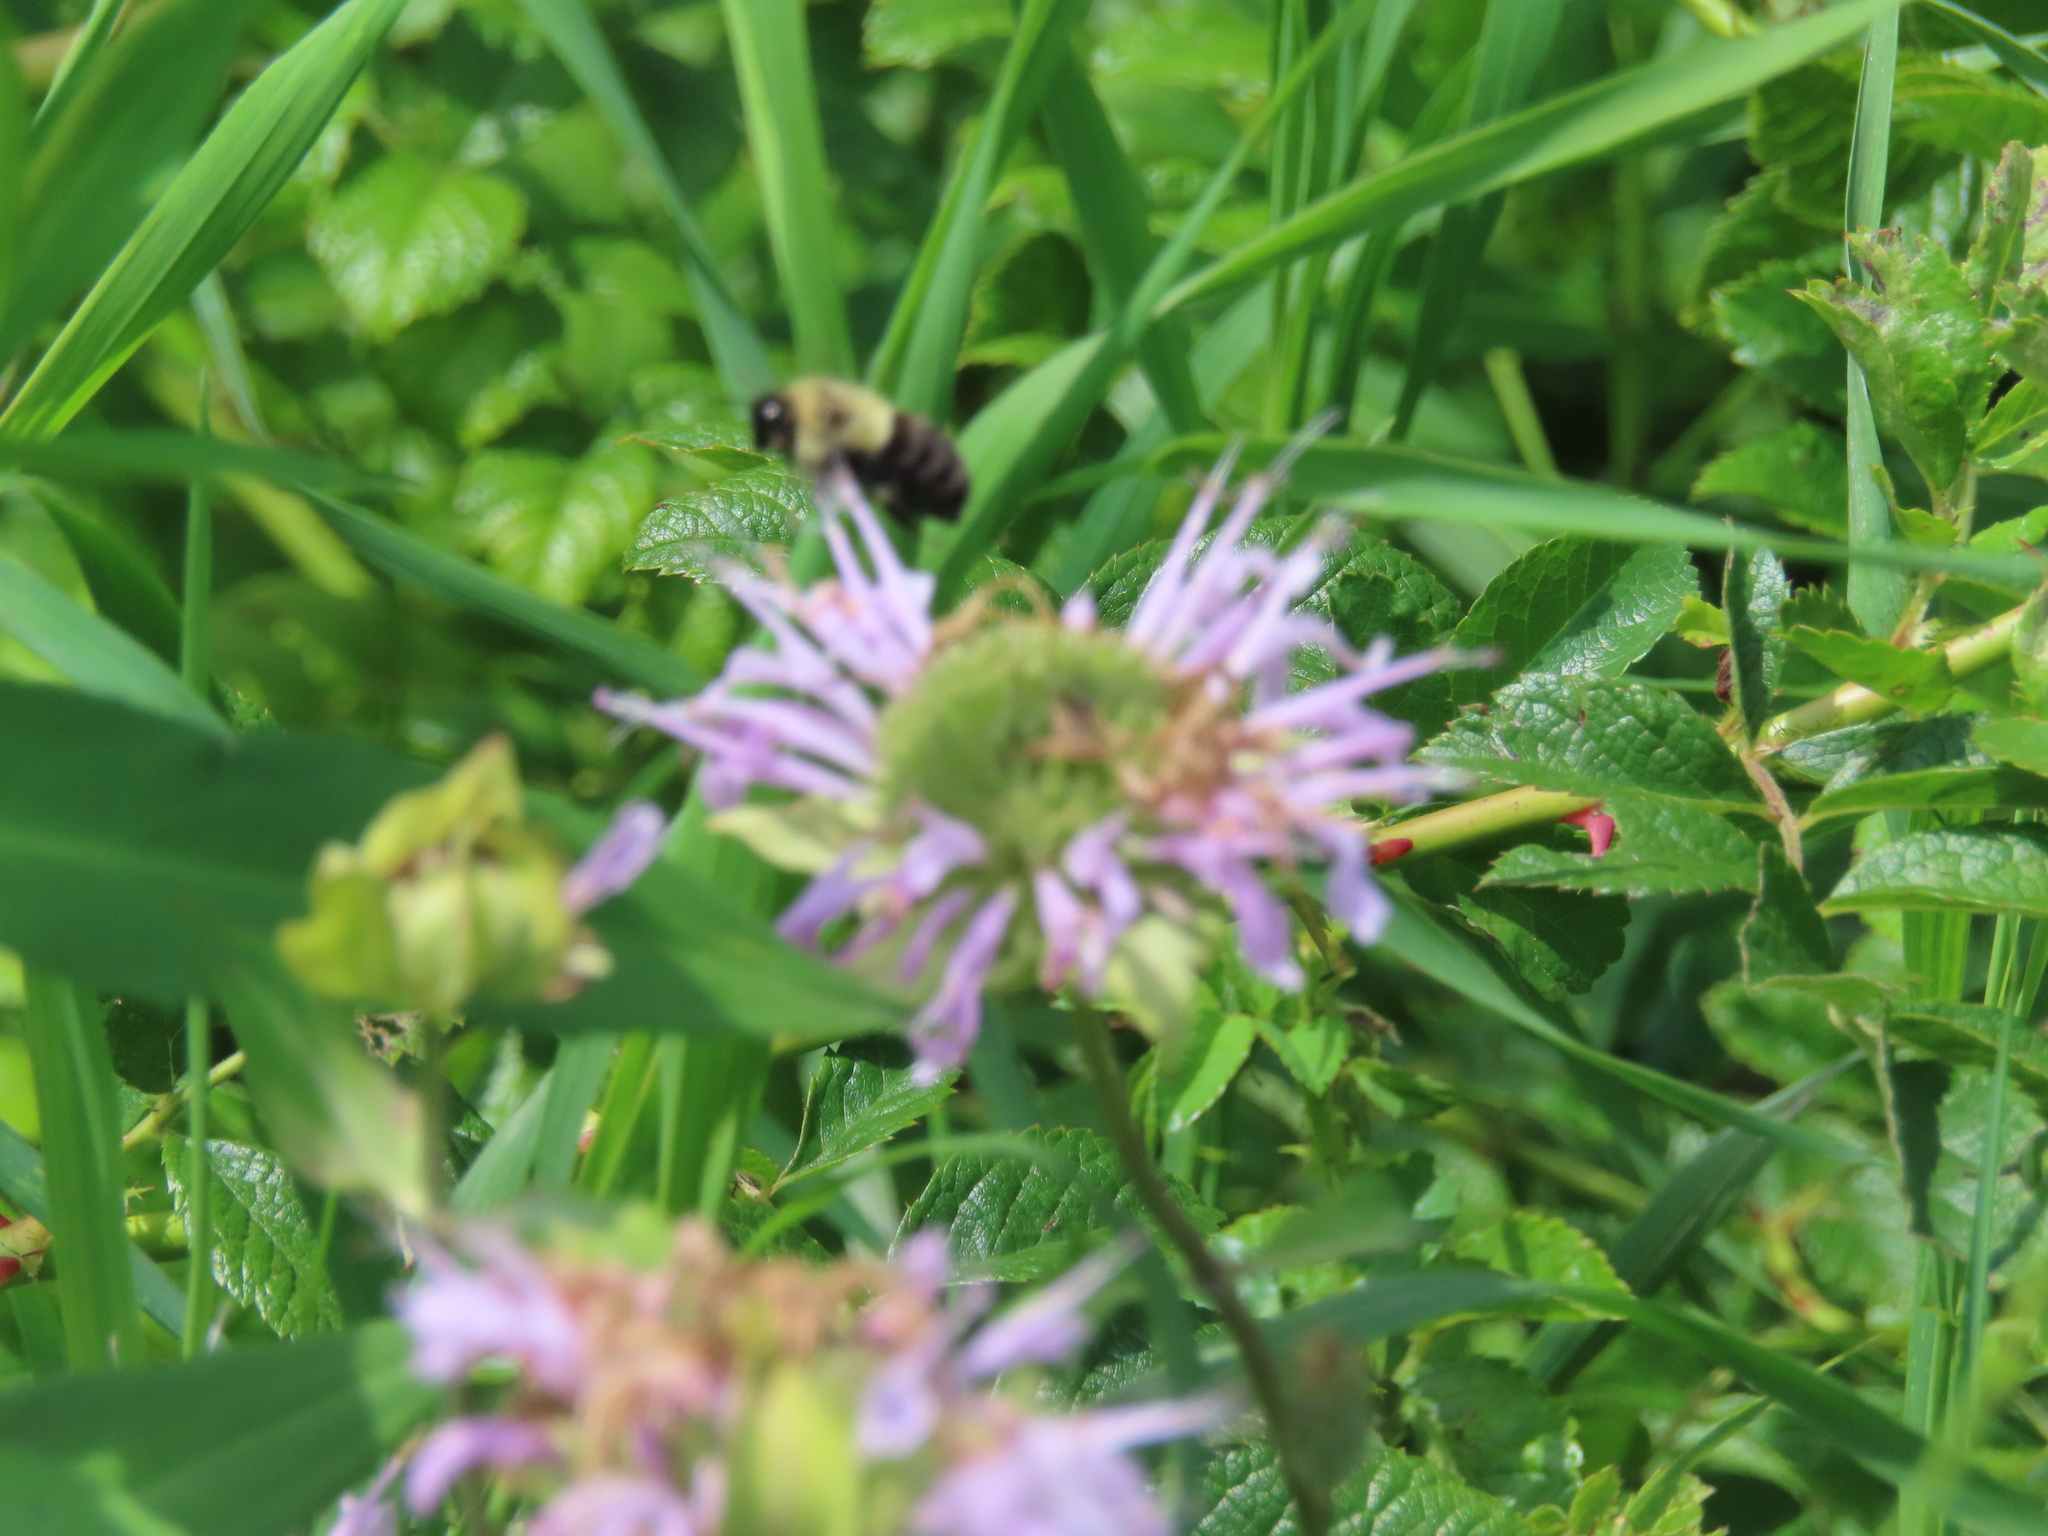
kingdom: Animalia
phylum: Arthropoda
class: Insecta
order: Hymenoptera
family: Apidae
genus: Bombus
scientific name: Bombus impatiens
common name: Common eastern bumble bee
